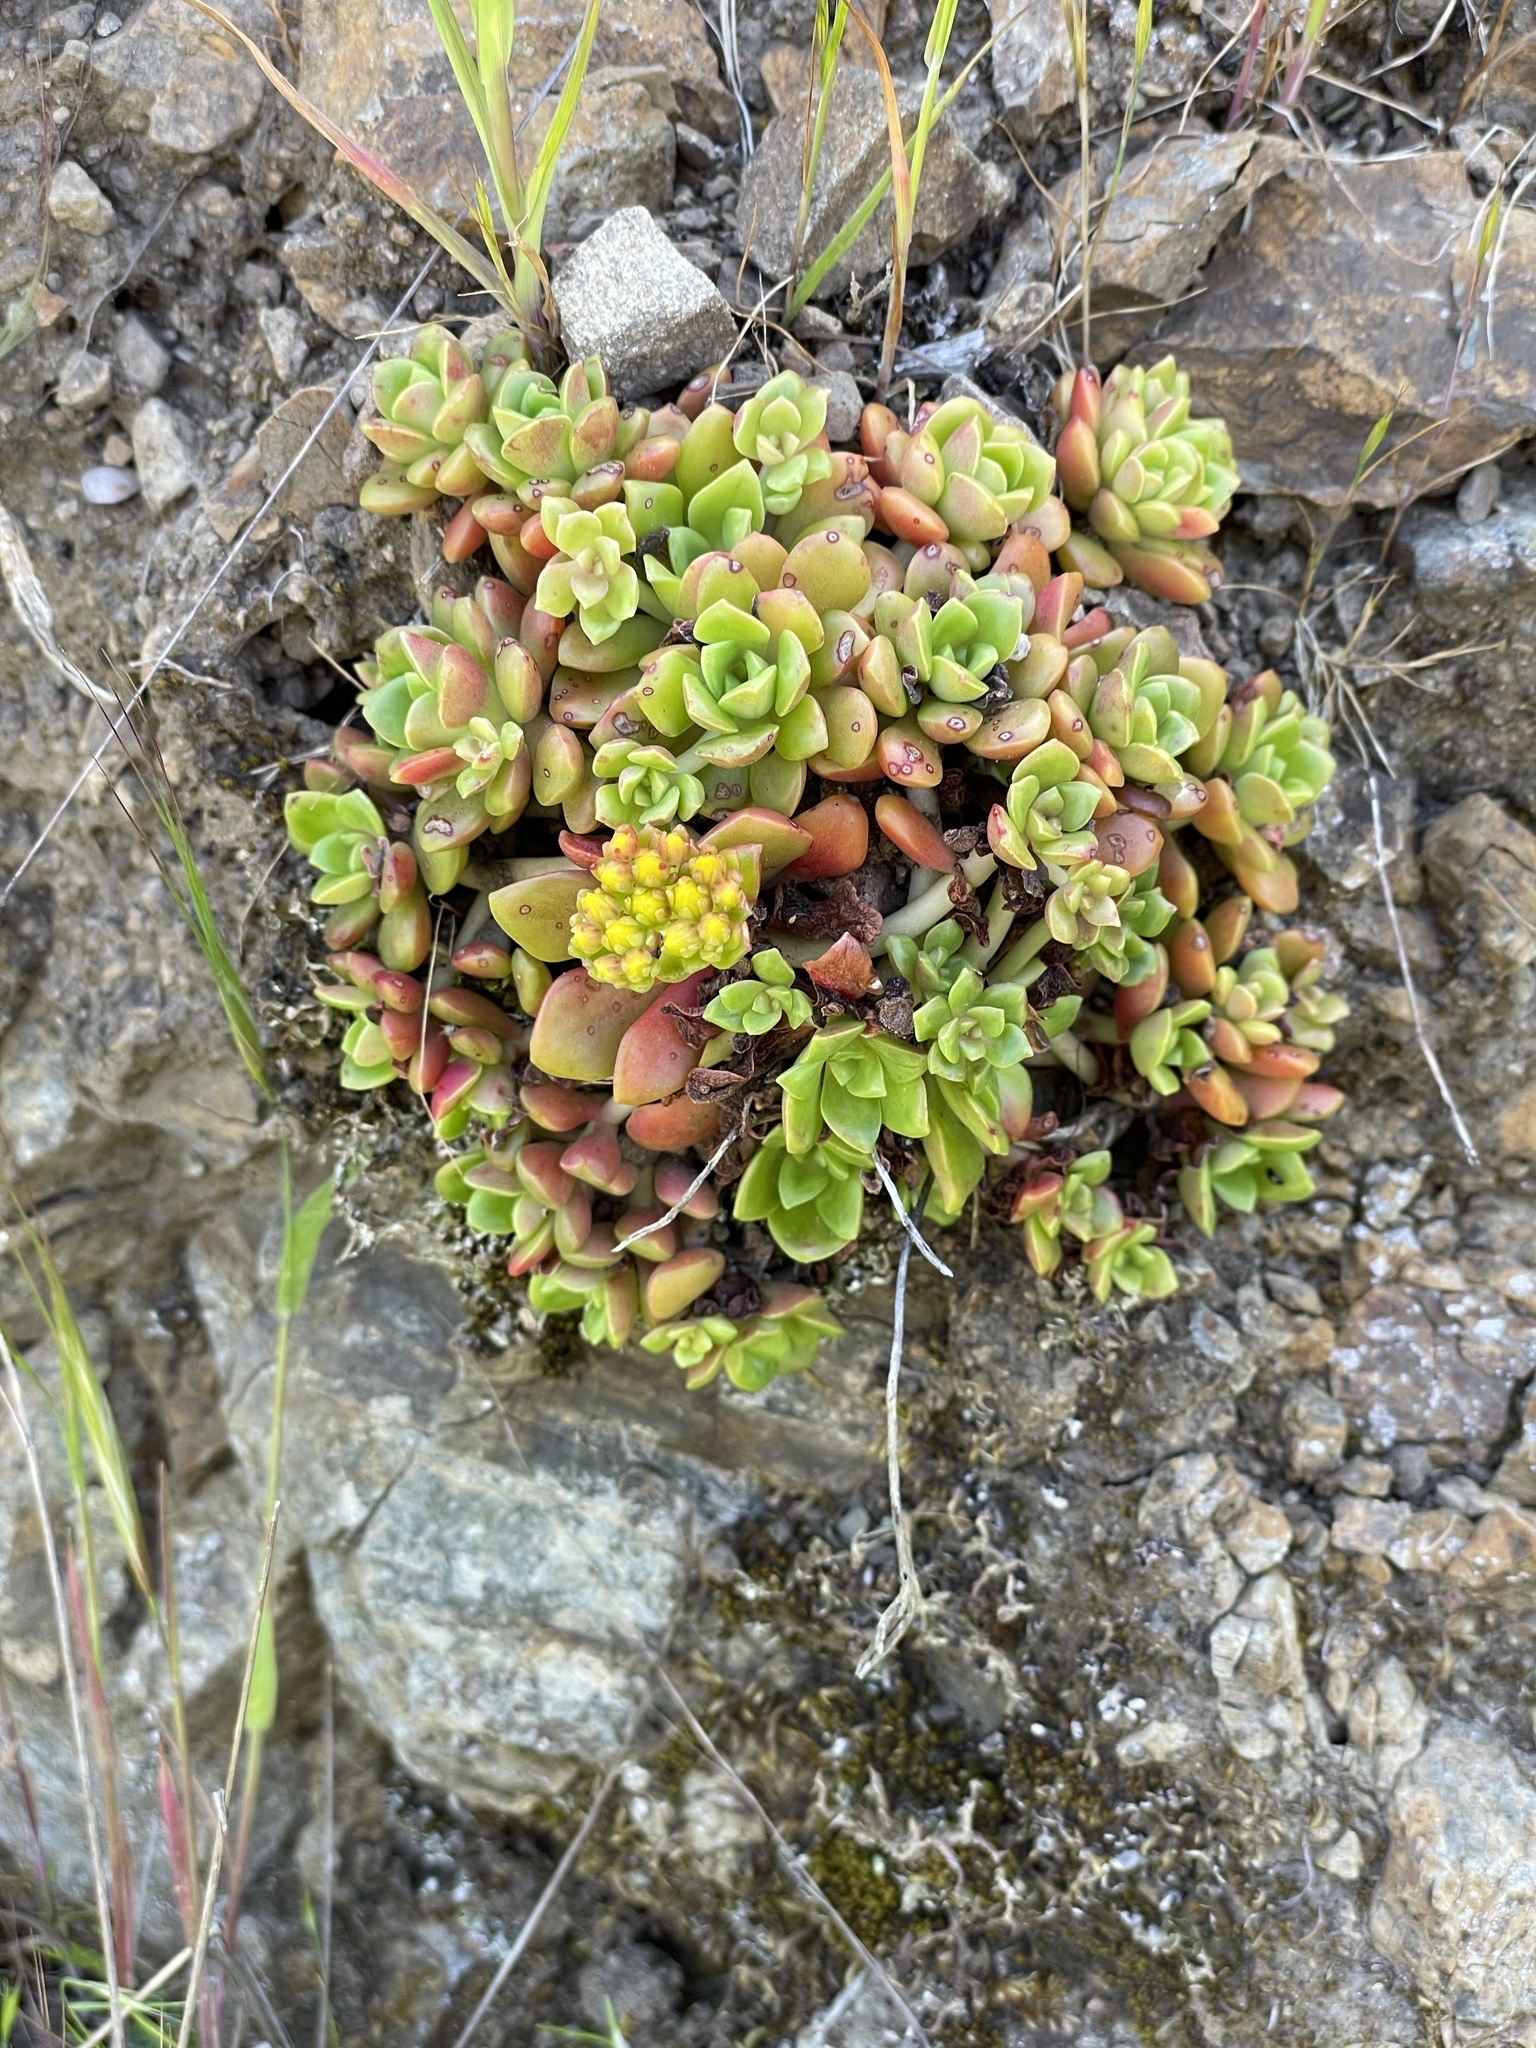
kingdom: Plantae
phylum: Tracheophyta
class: Magnoliopsida
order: Saxifragales
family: Crassulaceae
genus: Sedum
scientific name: Sedum spathulifolium
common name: Colorado stonecrop
